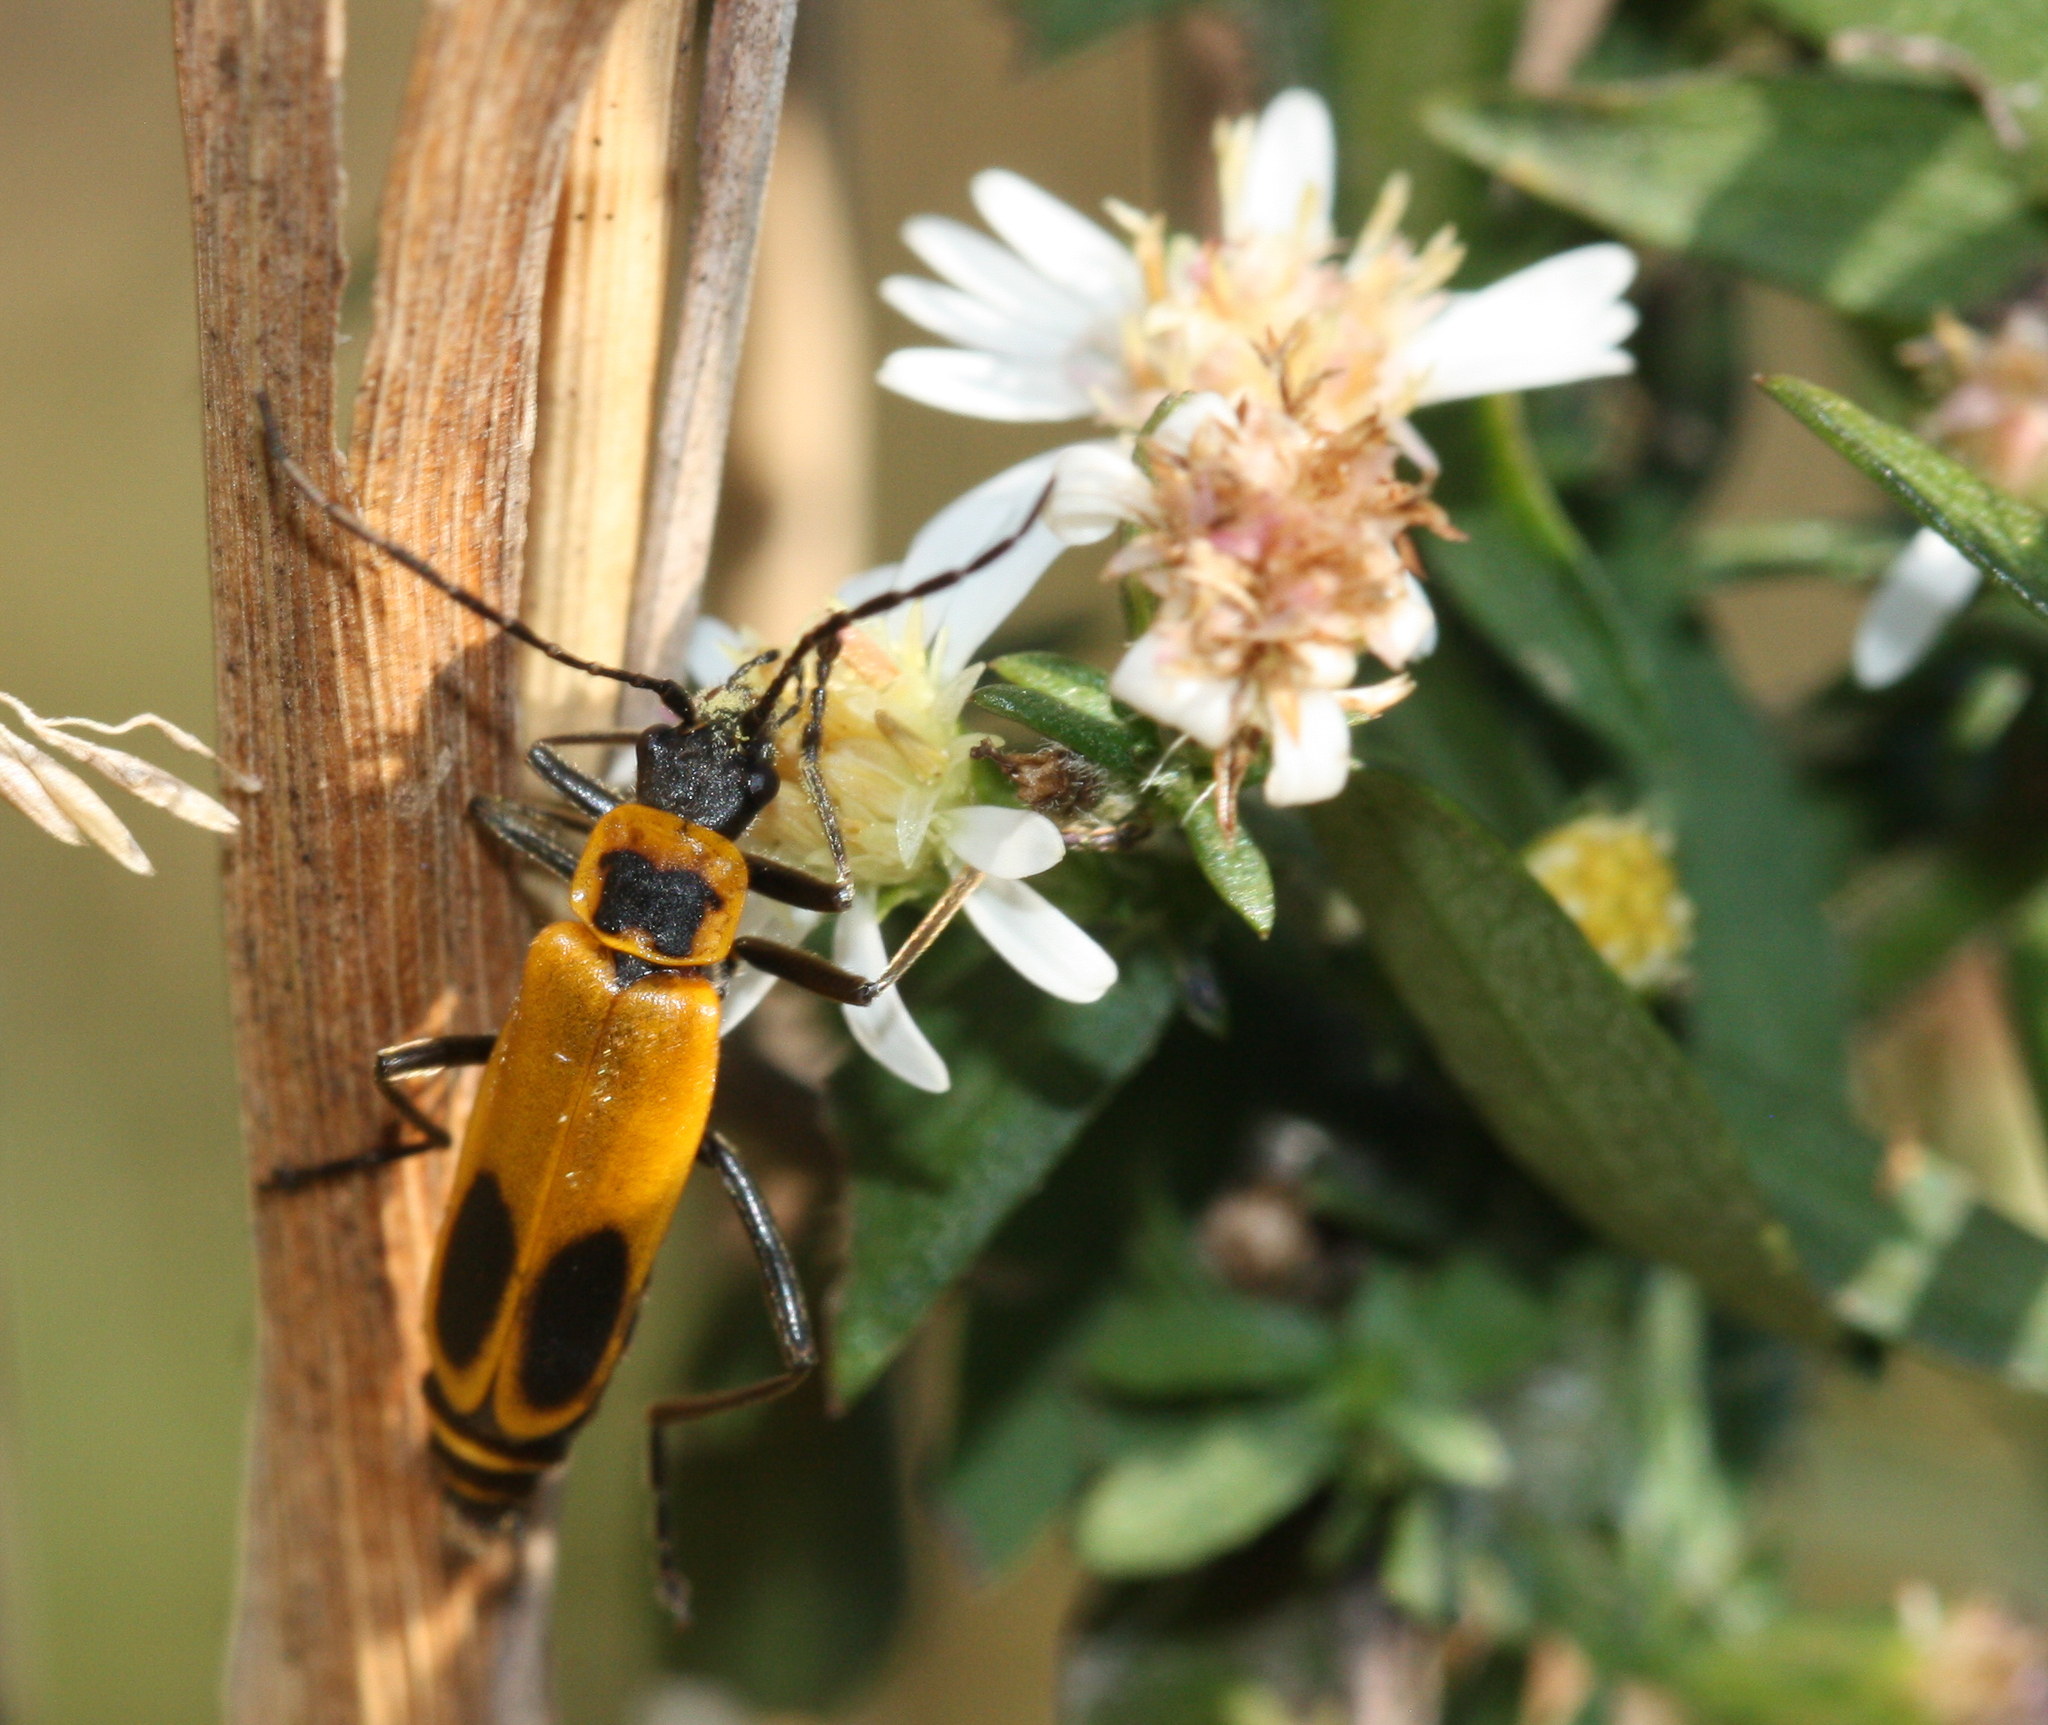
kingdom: Animalia
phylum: Arthropoda
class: Insecta
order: Coleoptera
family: Cantharidae
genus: Chauliognathus
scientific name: Chauliognathus pensylvanicus
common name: Goldenrod soldier beetle
